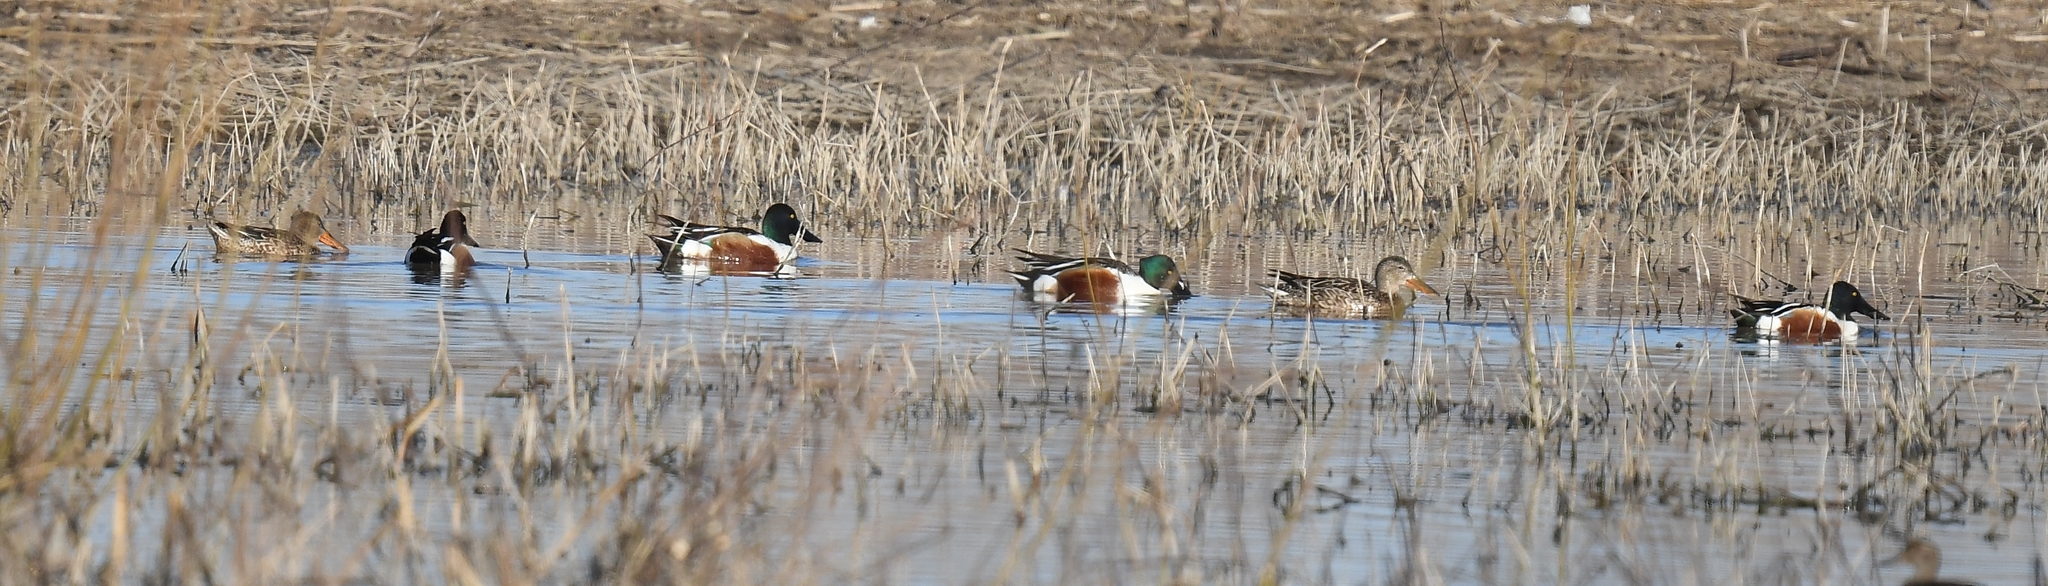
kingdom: Animalia
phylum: Chordata
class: Aves
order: Anseriformes
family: Anatidae
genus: Spatula
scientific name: Spatula clypeata
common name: Northern shoveler
